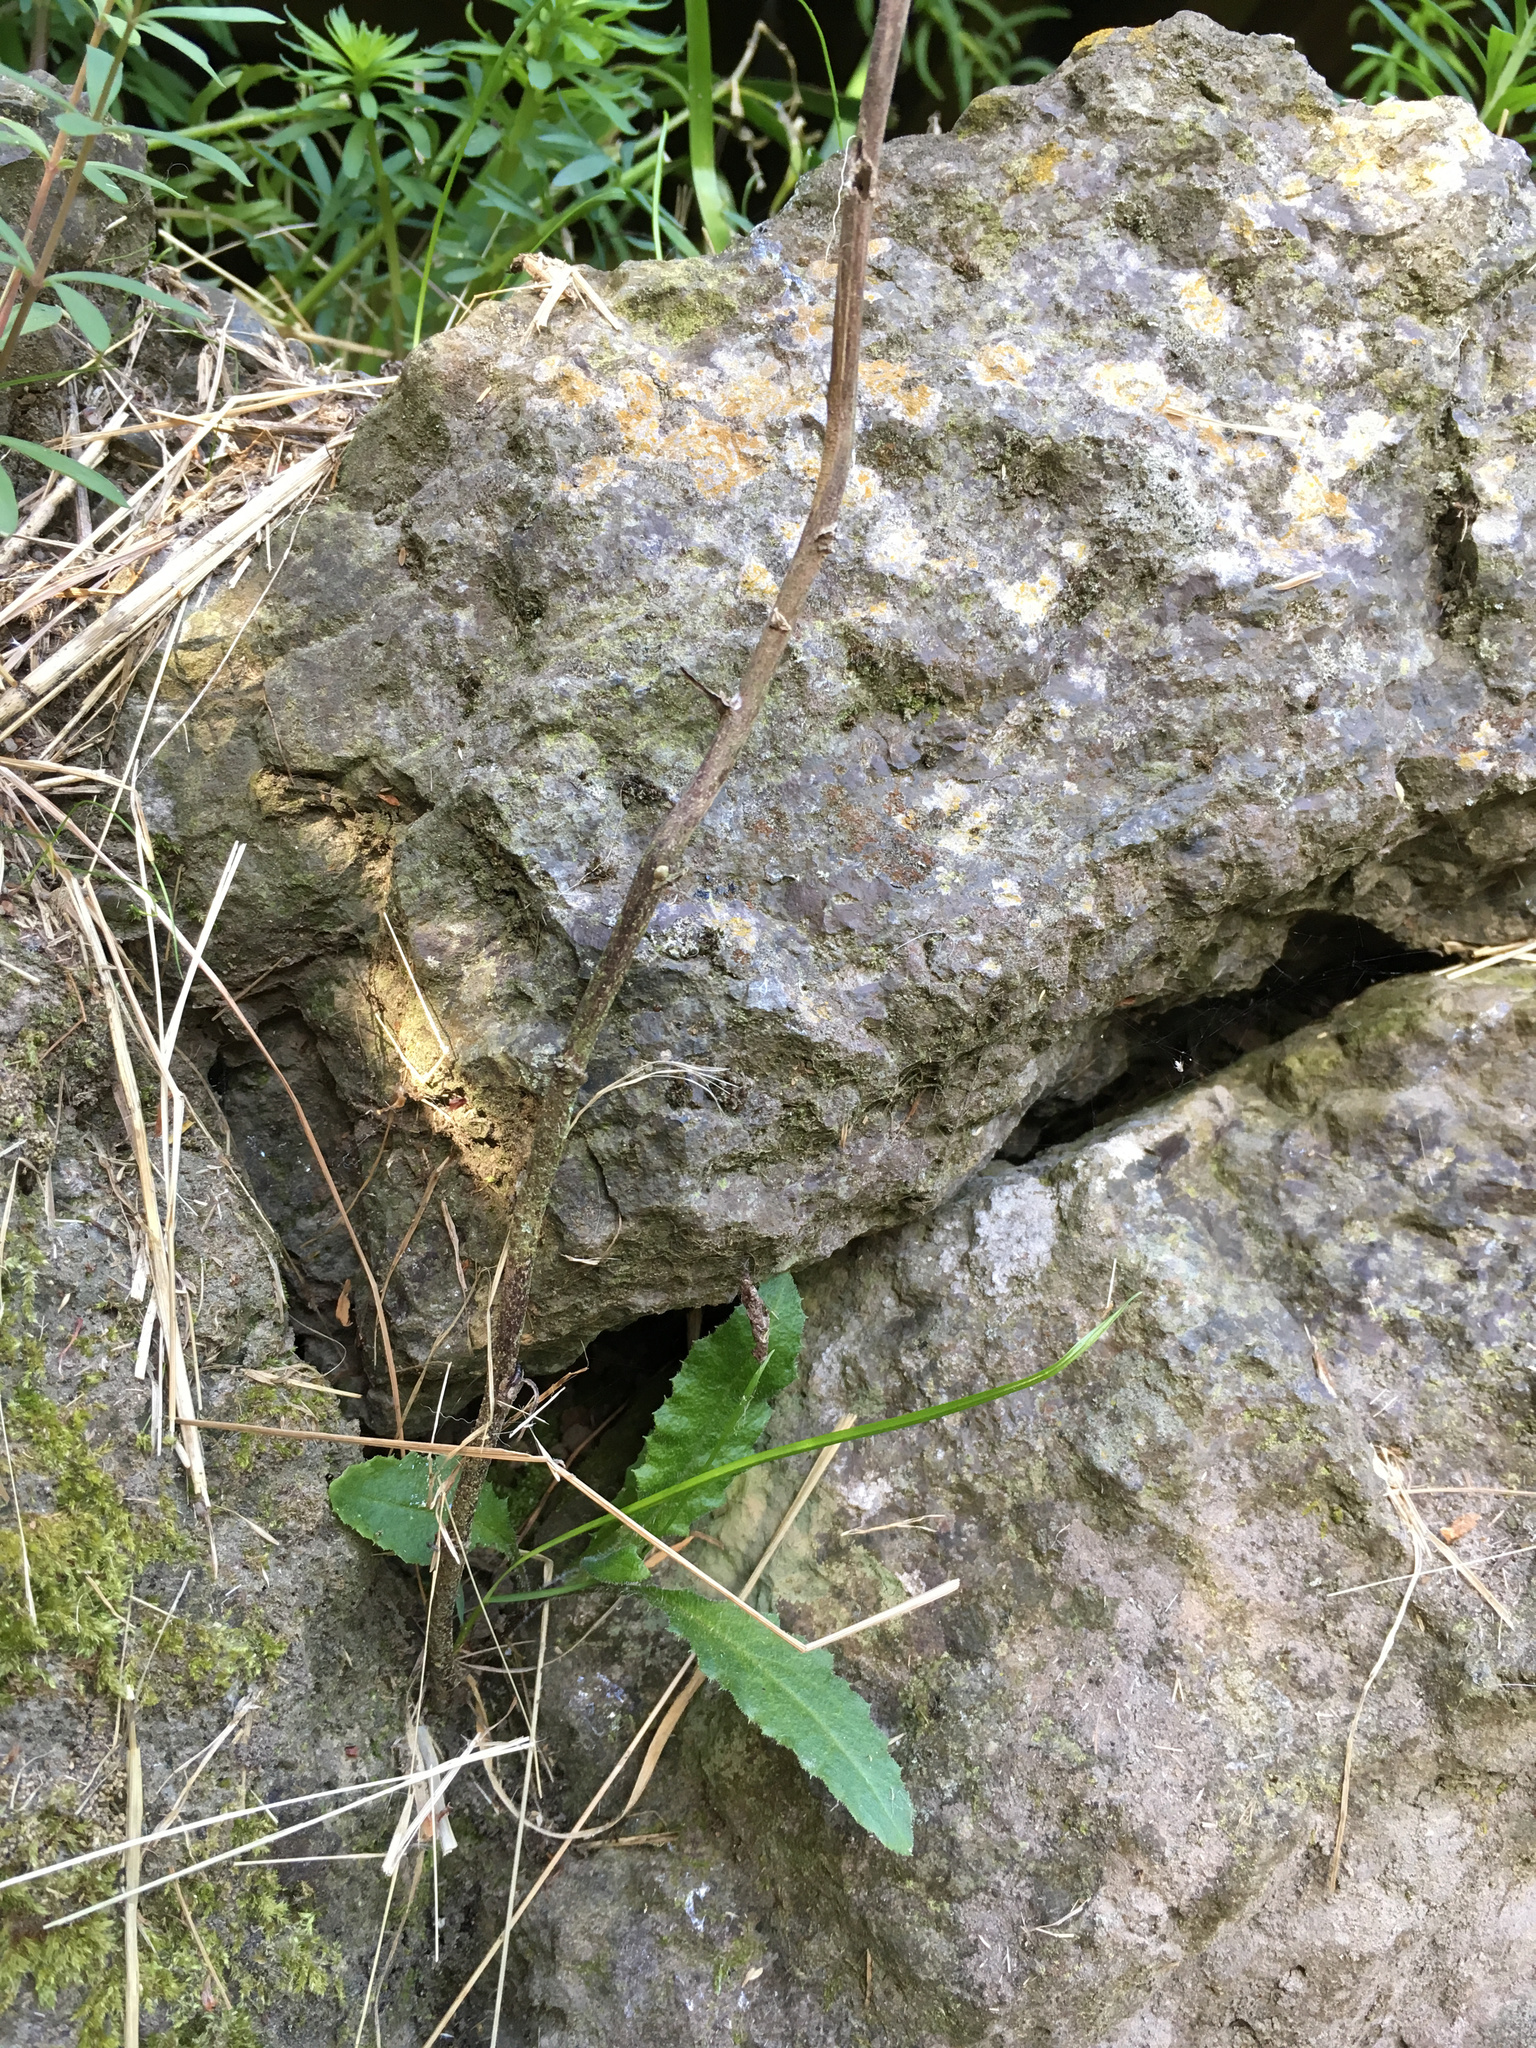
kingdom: Plantae
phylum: Tracheophyta
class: Magnoliopsida
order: Asterales
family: Asteraceae
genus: Senecio
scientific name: Senecio minimus
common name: Toothed fireweed
